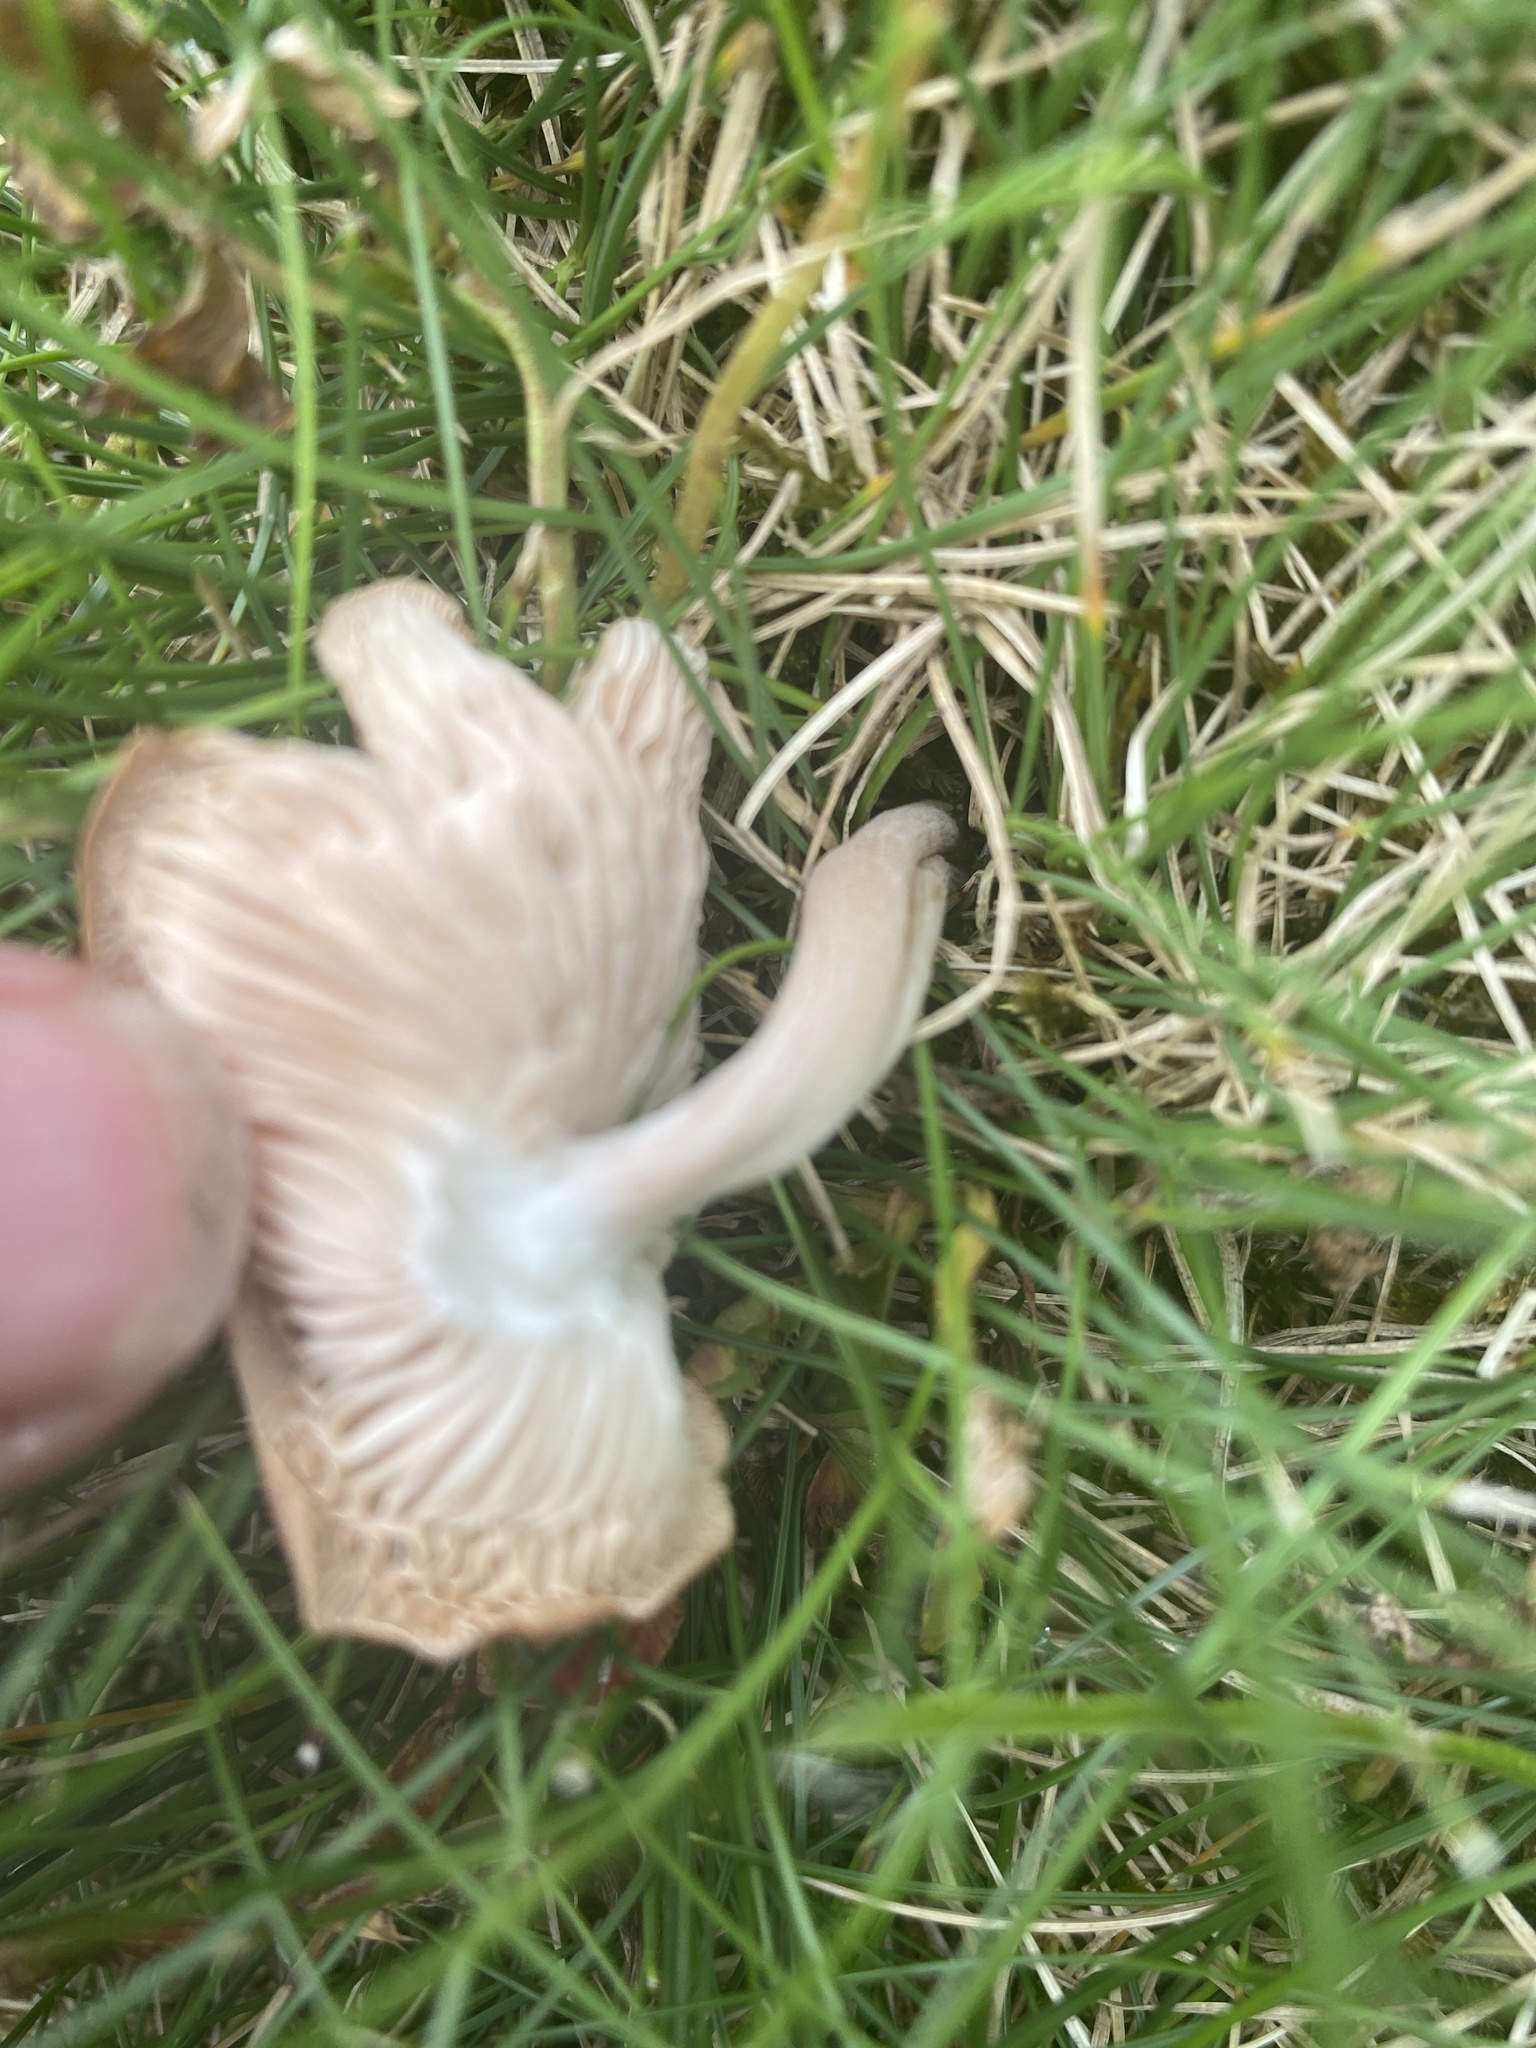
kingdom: Fungi
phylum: Basidiomycota
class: Agaricomycetes
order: Agaricales
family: Omphalotaceae
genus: Collybiopsis
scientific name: Collybiopsis luxurians
